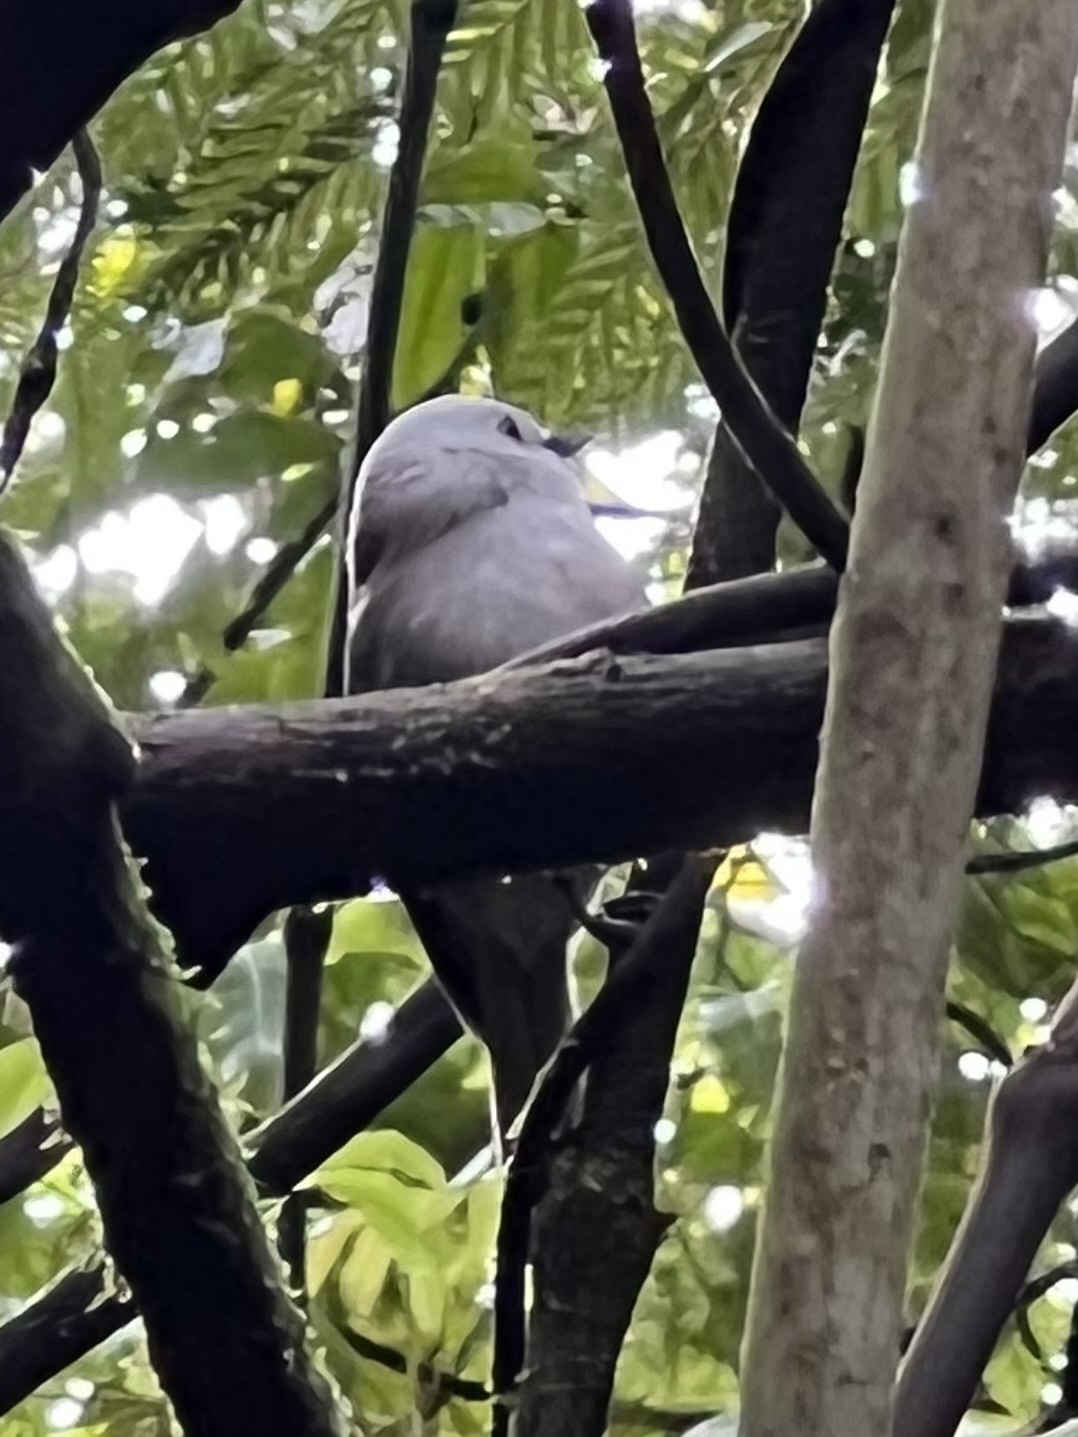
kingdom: Animalia
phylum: Chordata
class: Aves
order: Passeriformes
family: Acanthizidae
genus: Mohoua
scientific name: Mohoua albicilla
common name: Whitehead
